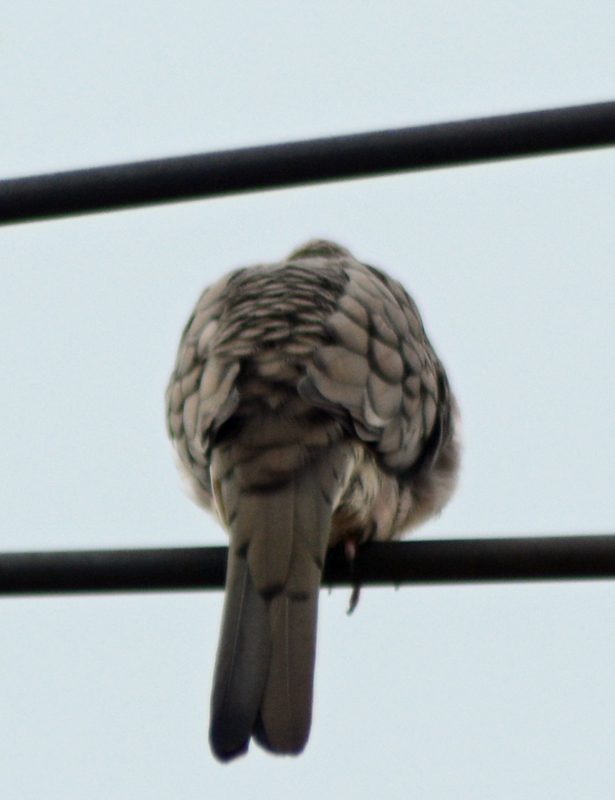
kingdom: Animalia
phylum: Chordata
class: Aves
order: Columbiformes
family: Columbidae
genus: Columbina
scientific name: Columbina inca
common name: Inca dove
